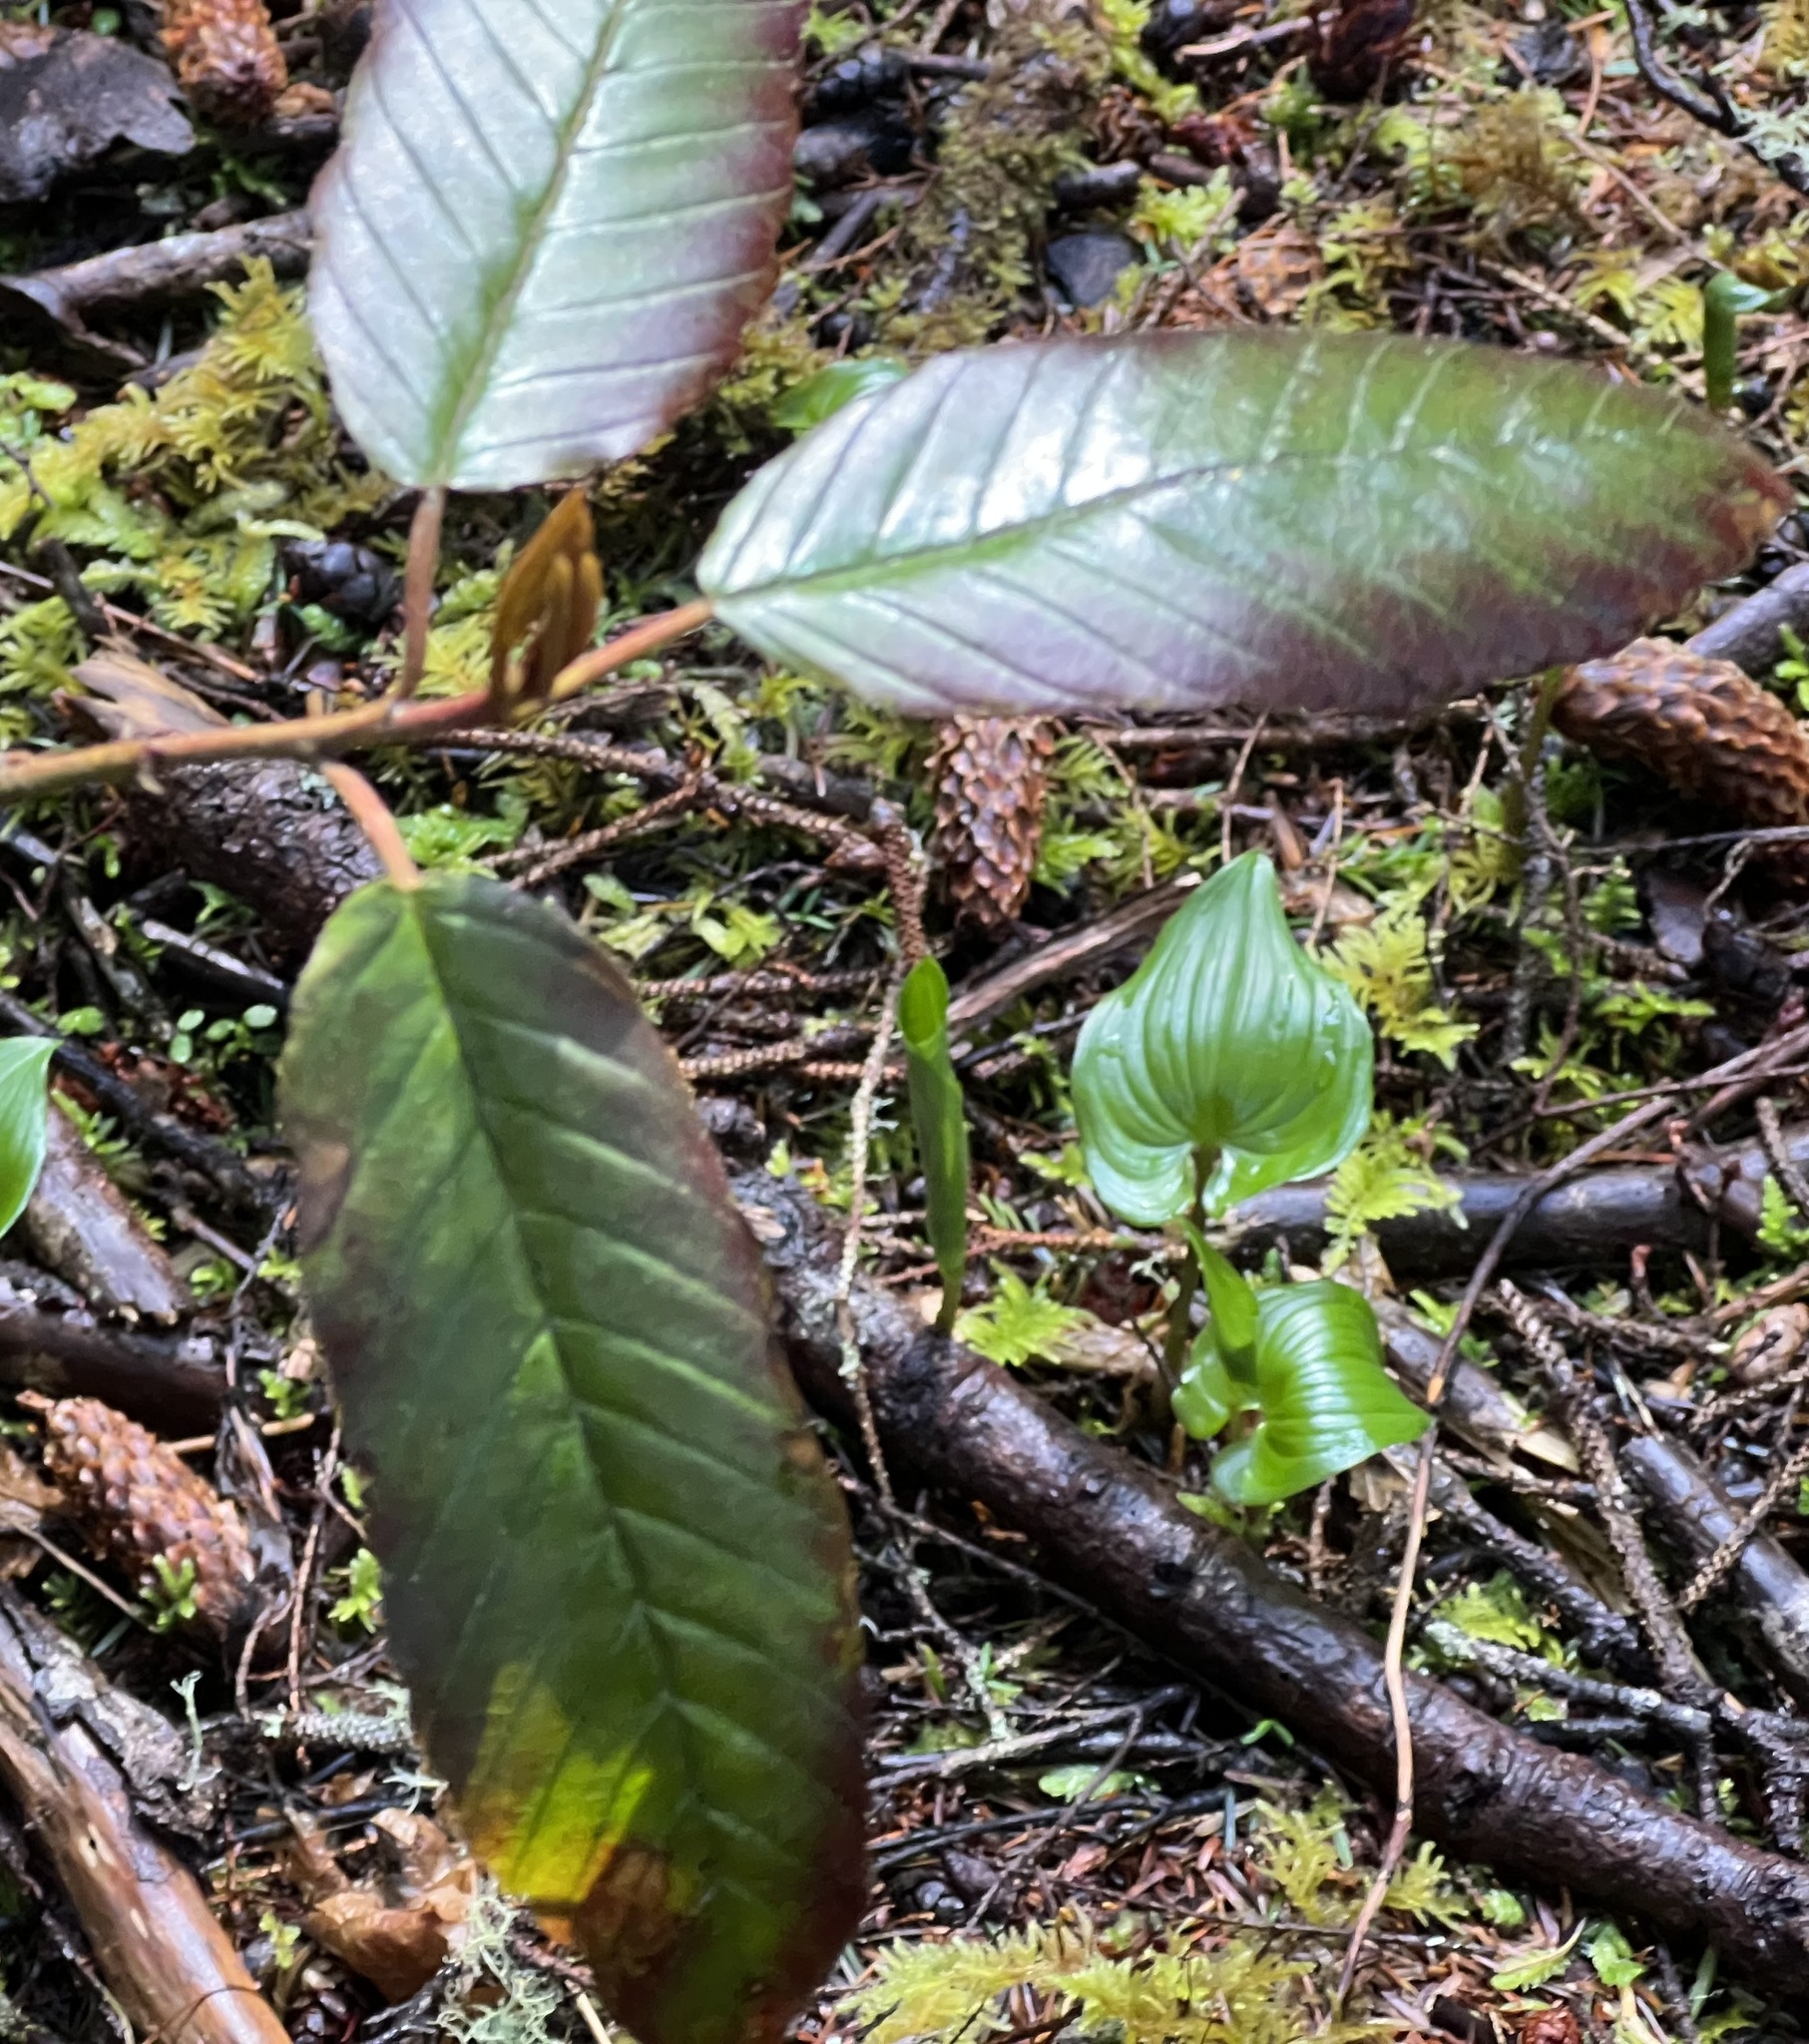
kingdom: Plantae
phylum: Tracheophyta
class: Magnoliopsida
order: Rosales
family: Rhamnaceae
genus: Frangula
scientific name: Frangula purshiana
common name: Cascara buckthorn
